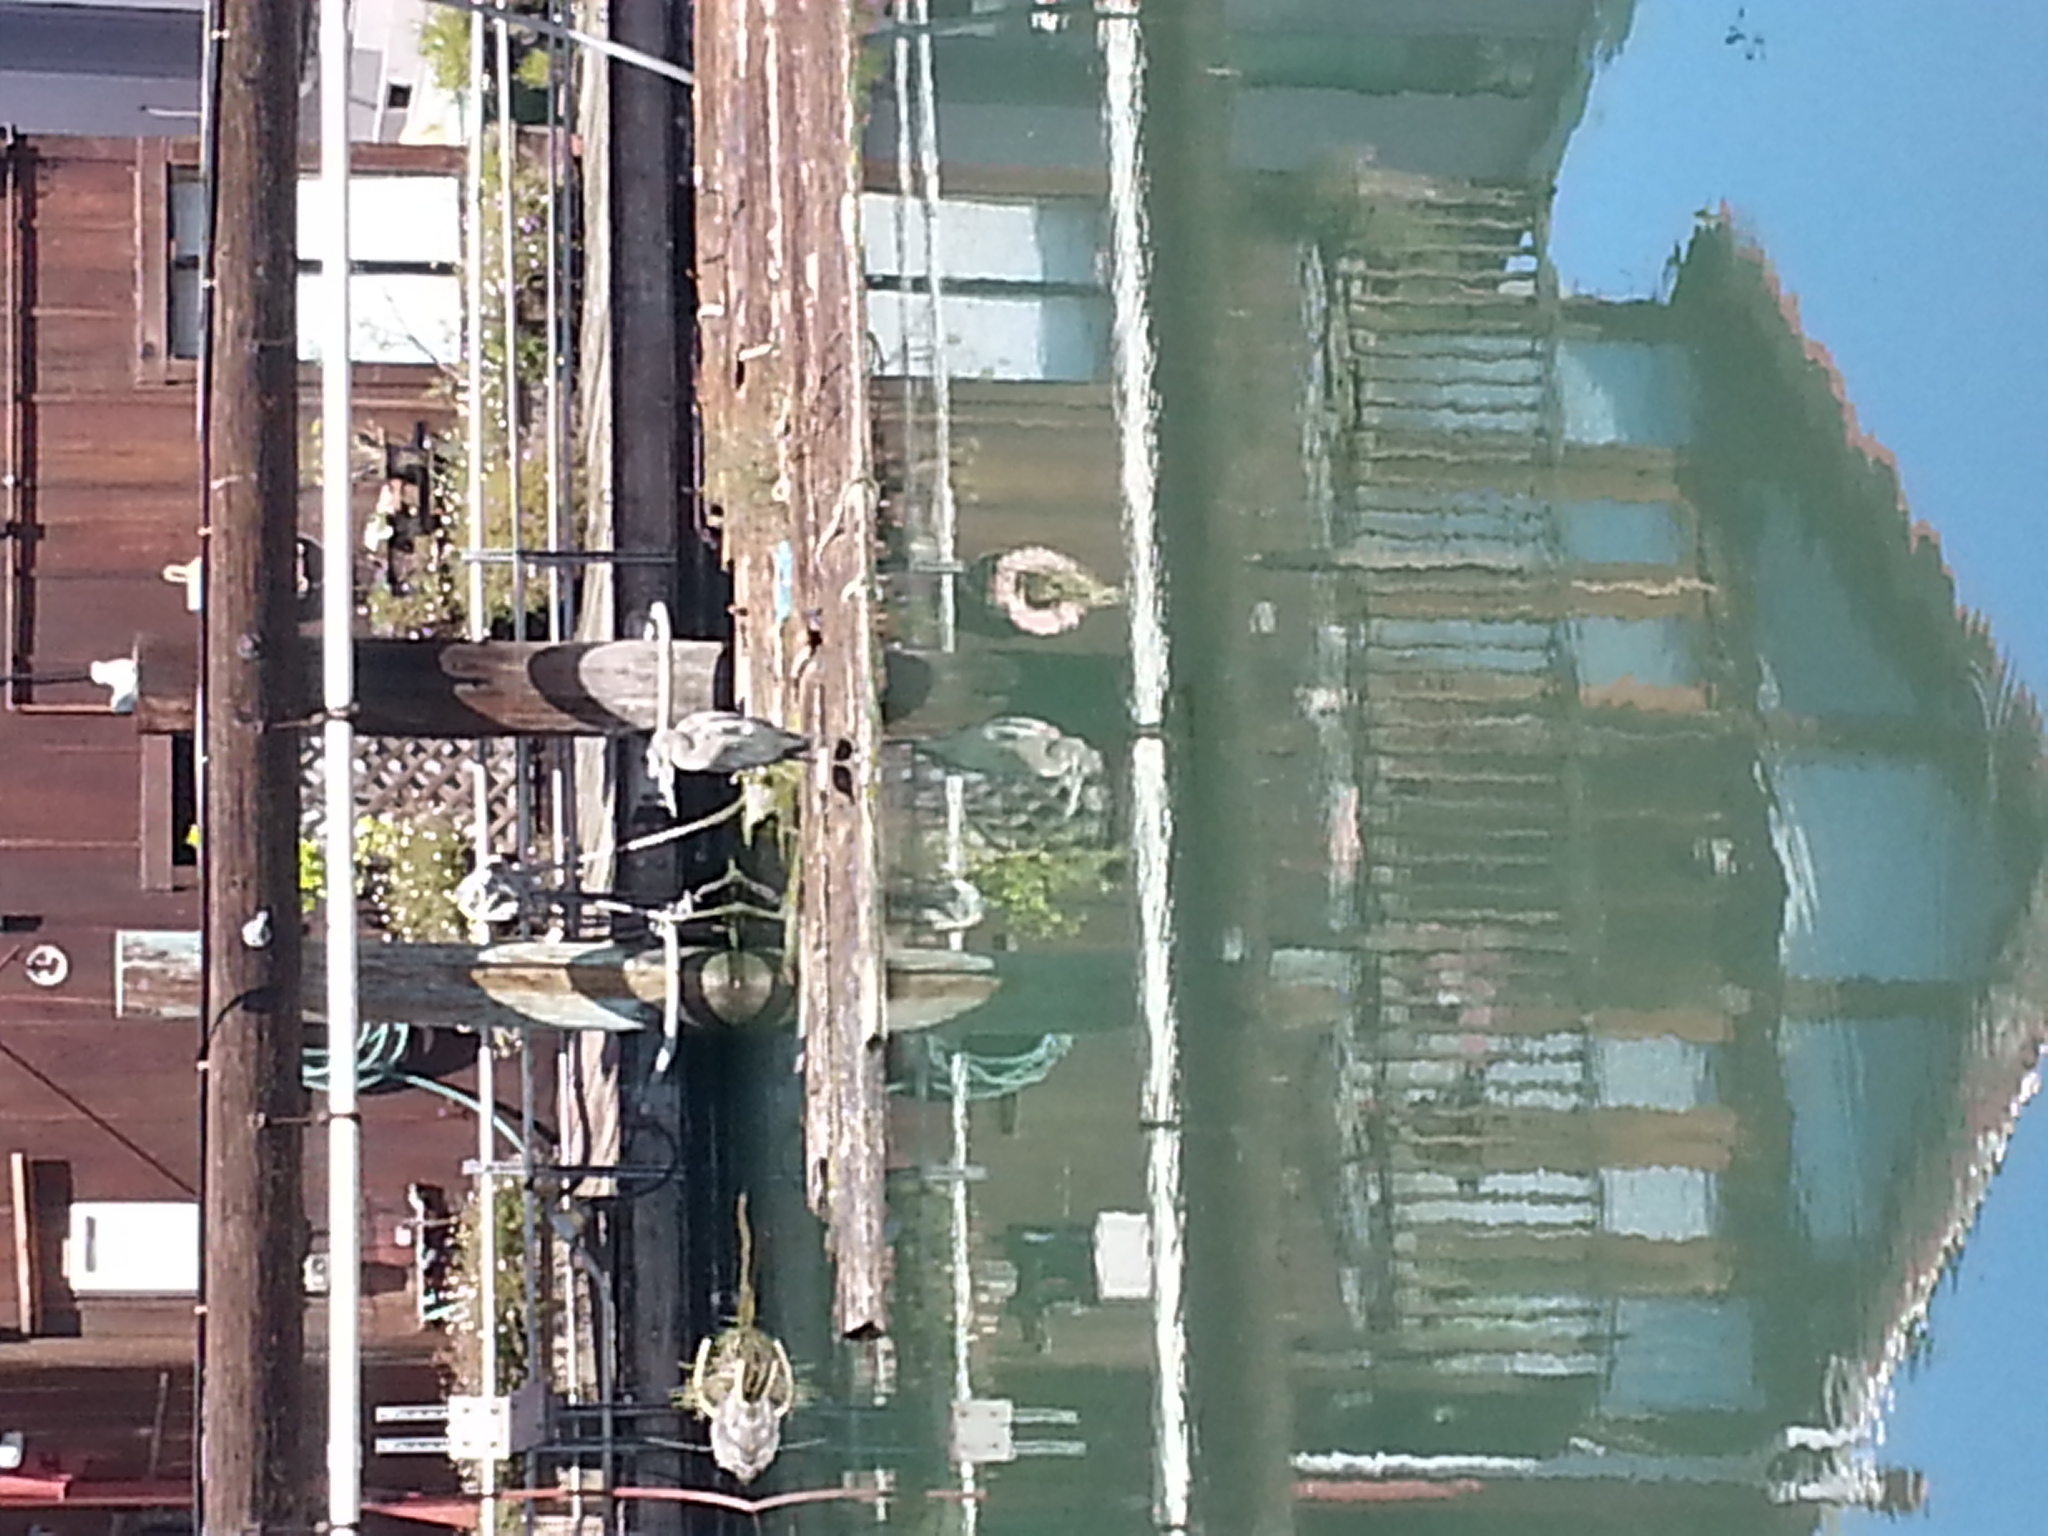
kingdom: Animalia
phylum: Chordata
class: Aves
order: Pelecaniformes
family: Ardeidae
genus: Ardea
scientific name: Ardea herodias
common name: Great blue heron
